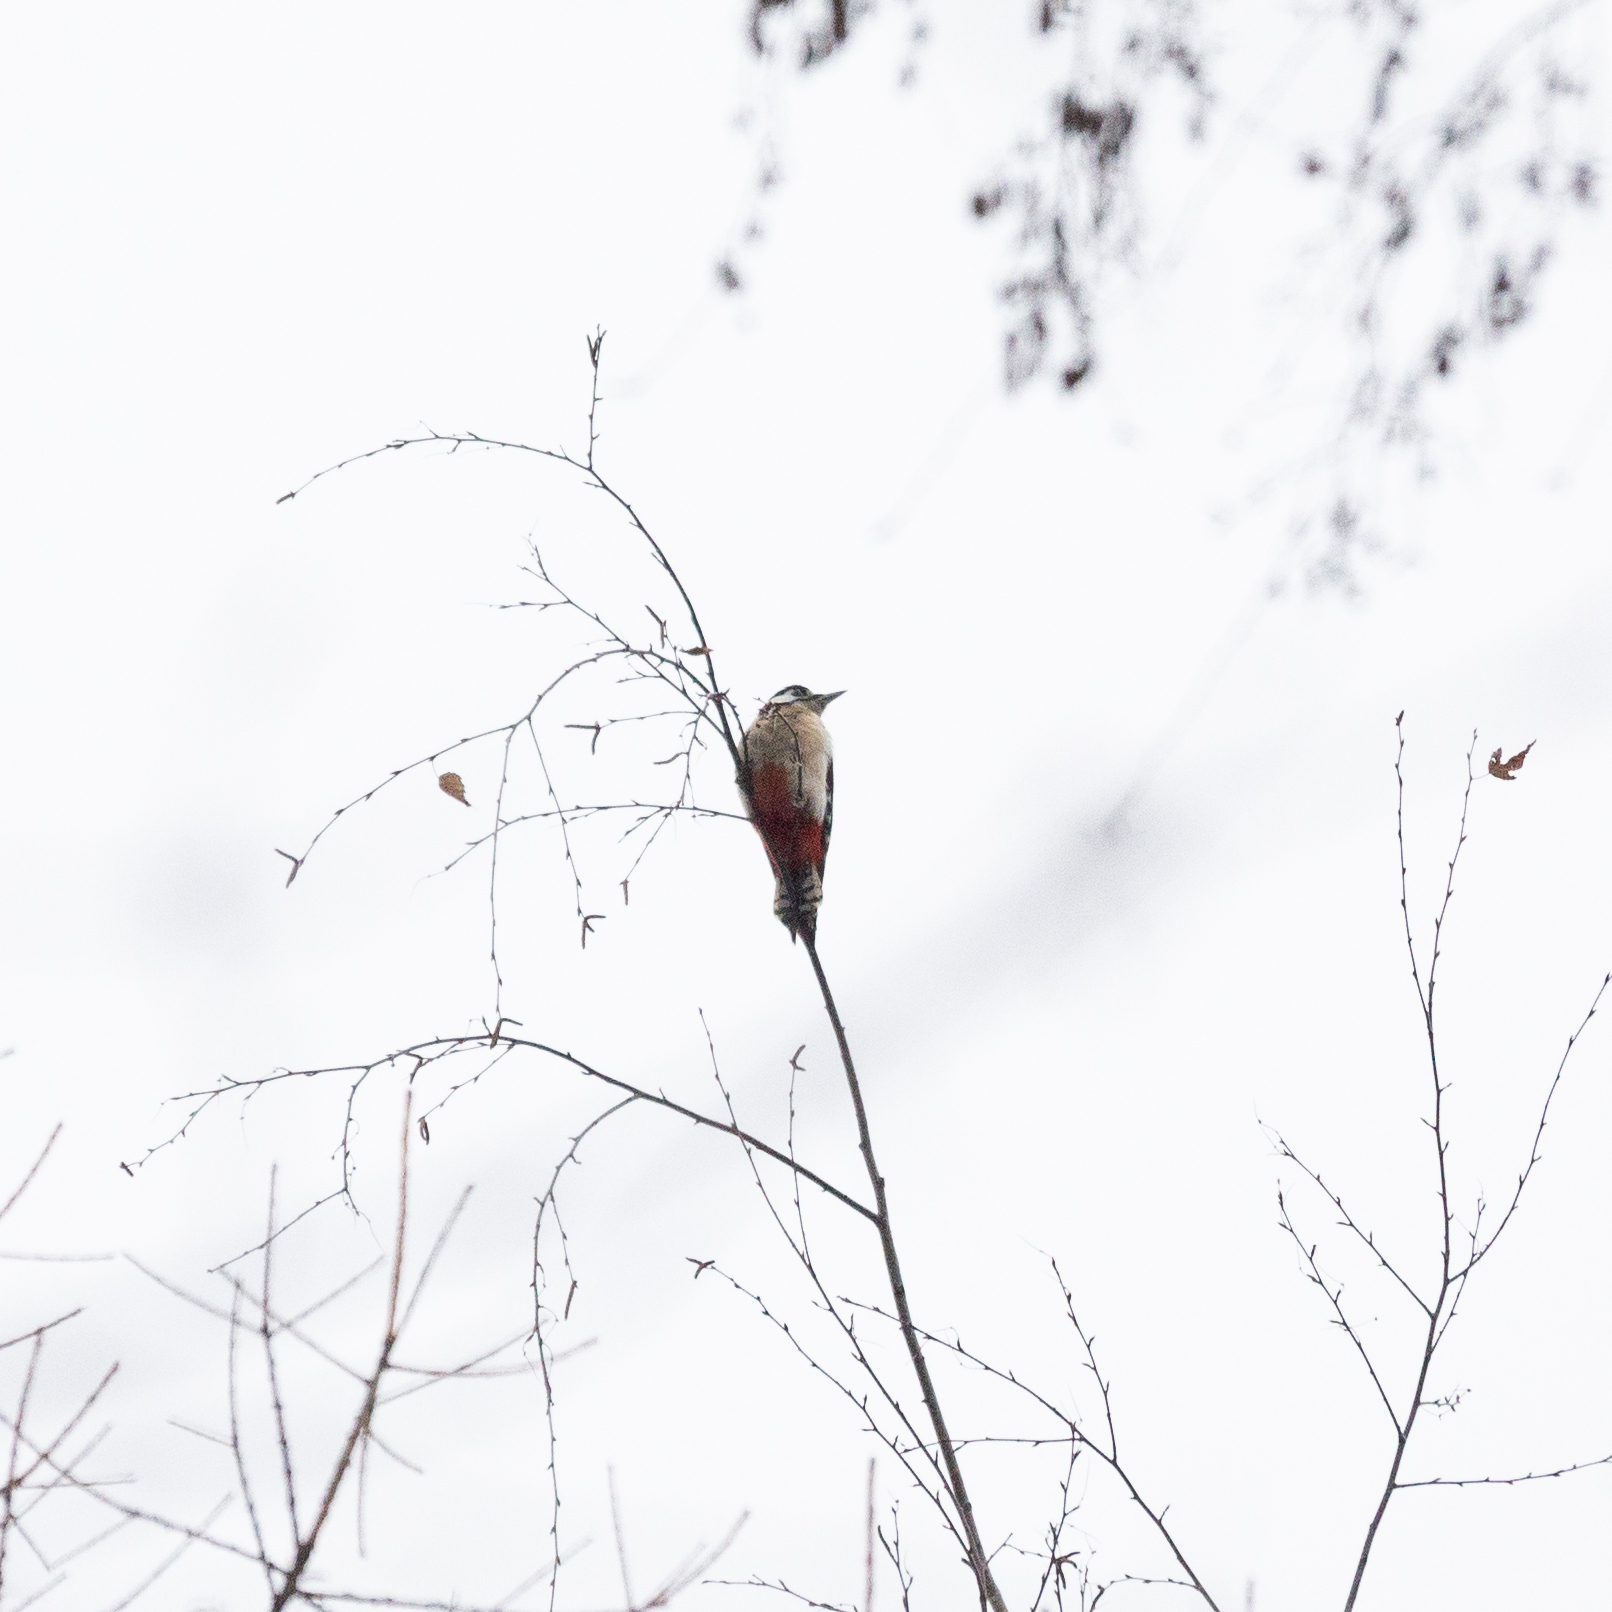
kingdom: Animalia
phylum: Chordata
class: Aves
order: Piciformes
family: Picidae
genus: Dendrocopos
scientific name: Dendrocopos major
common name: Great spotted woodpecker
